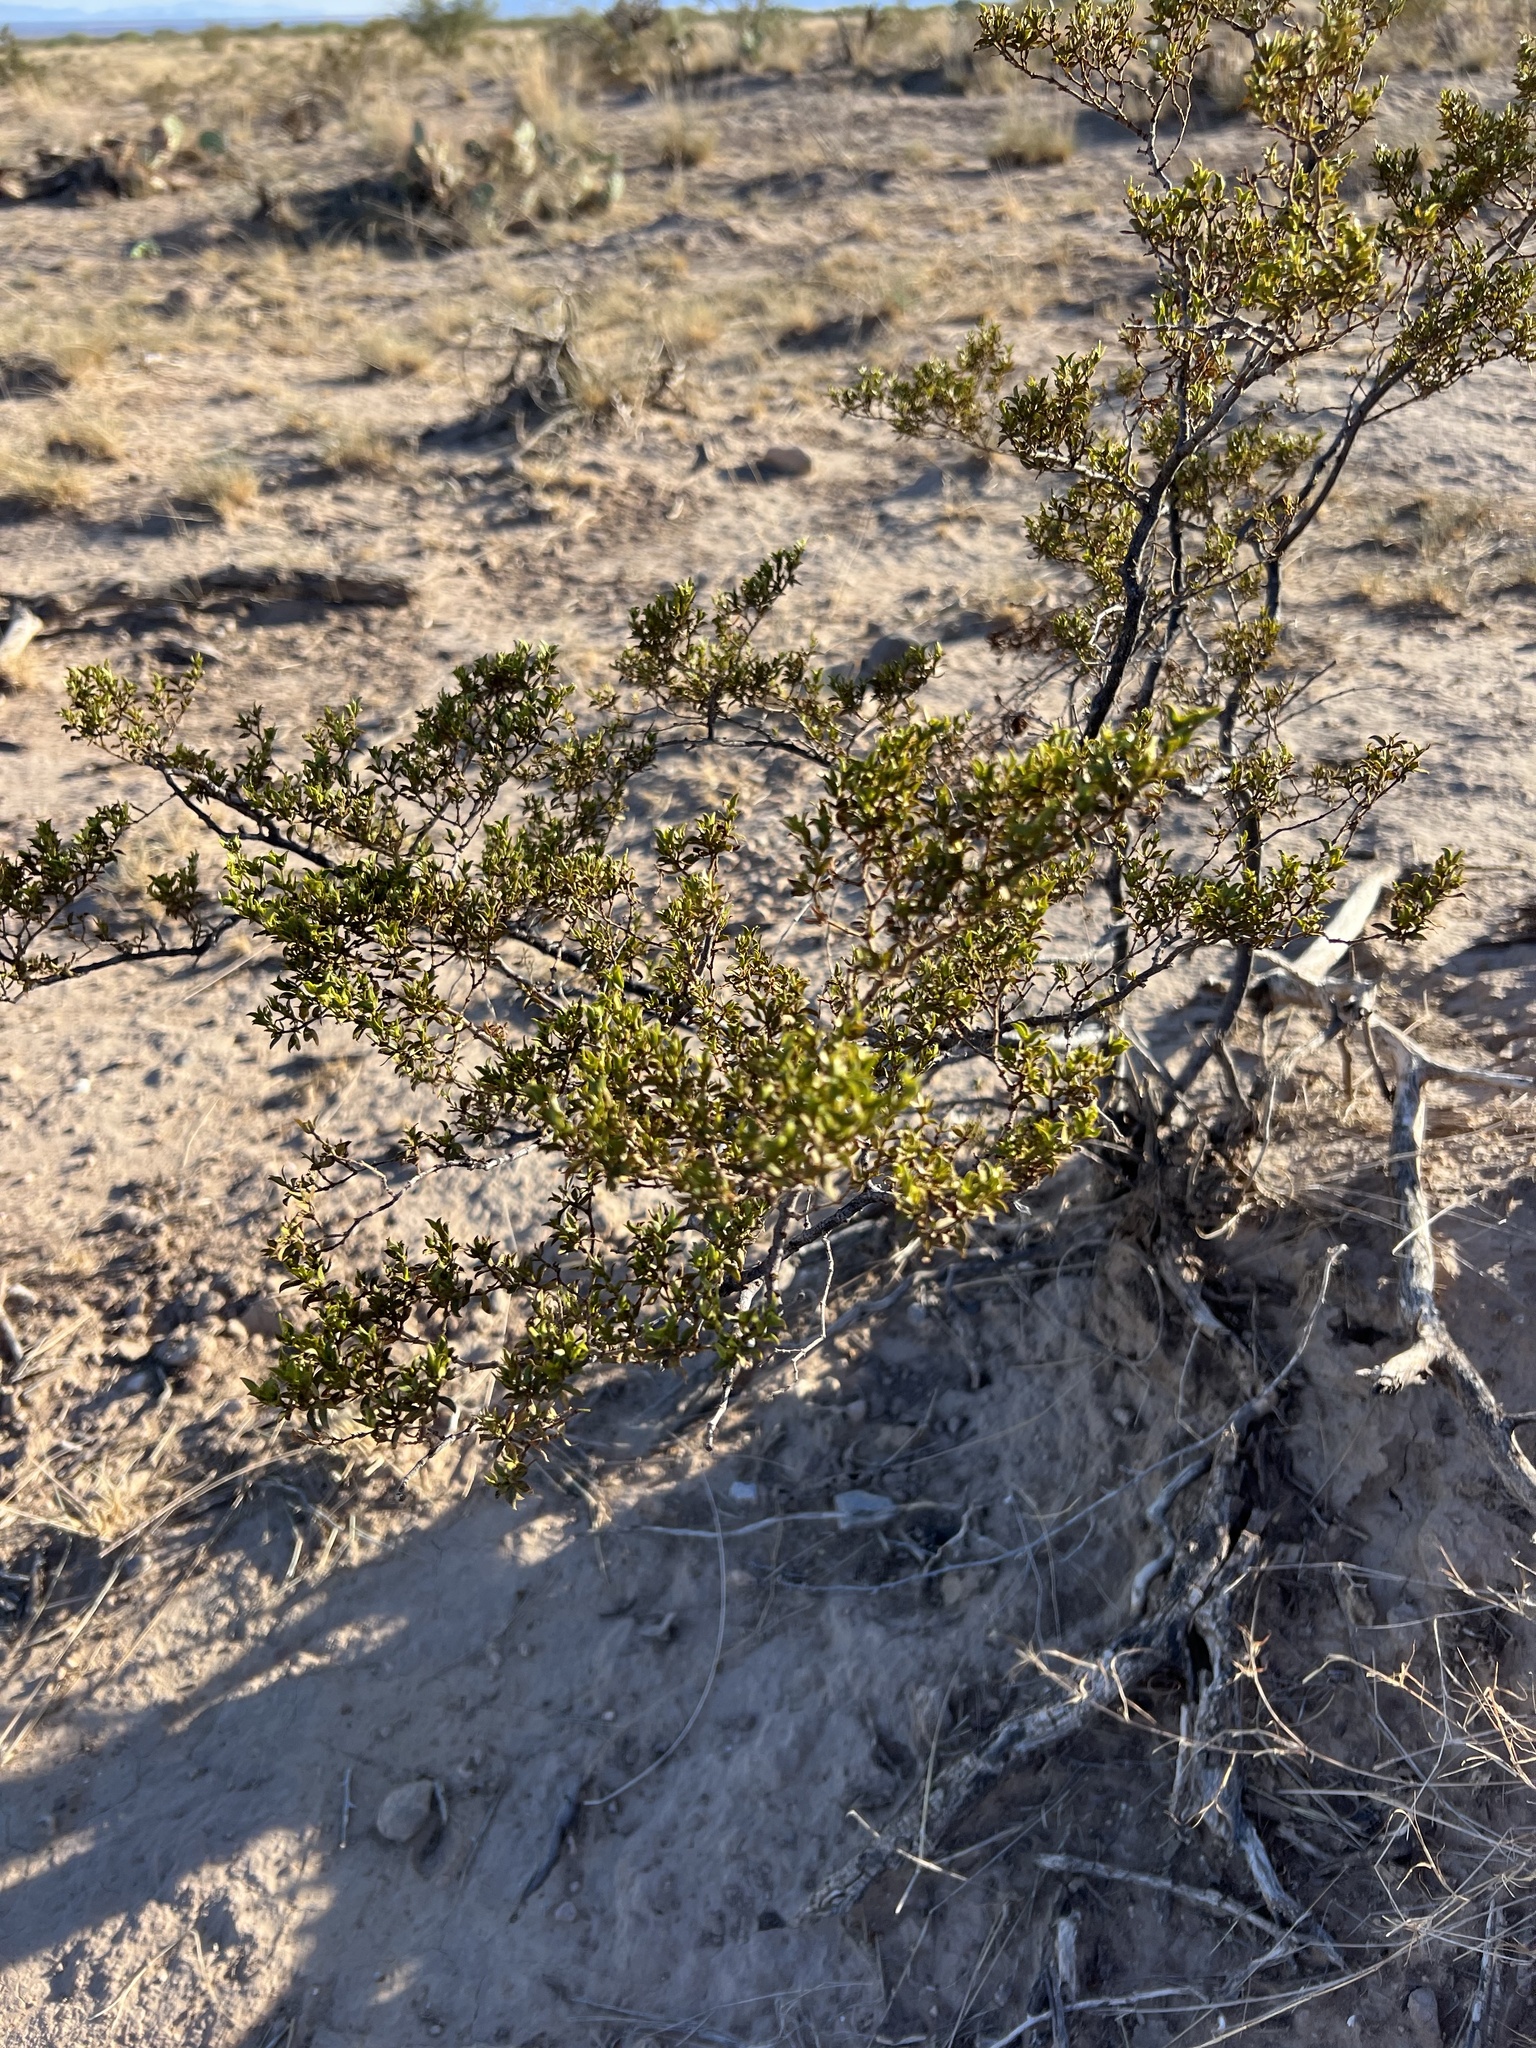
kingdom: Plantae
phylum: Tracheophyta
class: Magnoliopsida
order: Zygophyllales
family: Zygophyllaceae
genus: Larrea
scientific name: Larrea tridentata
